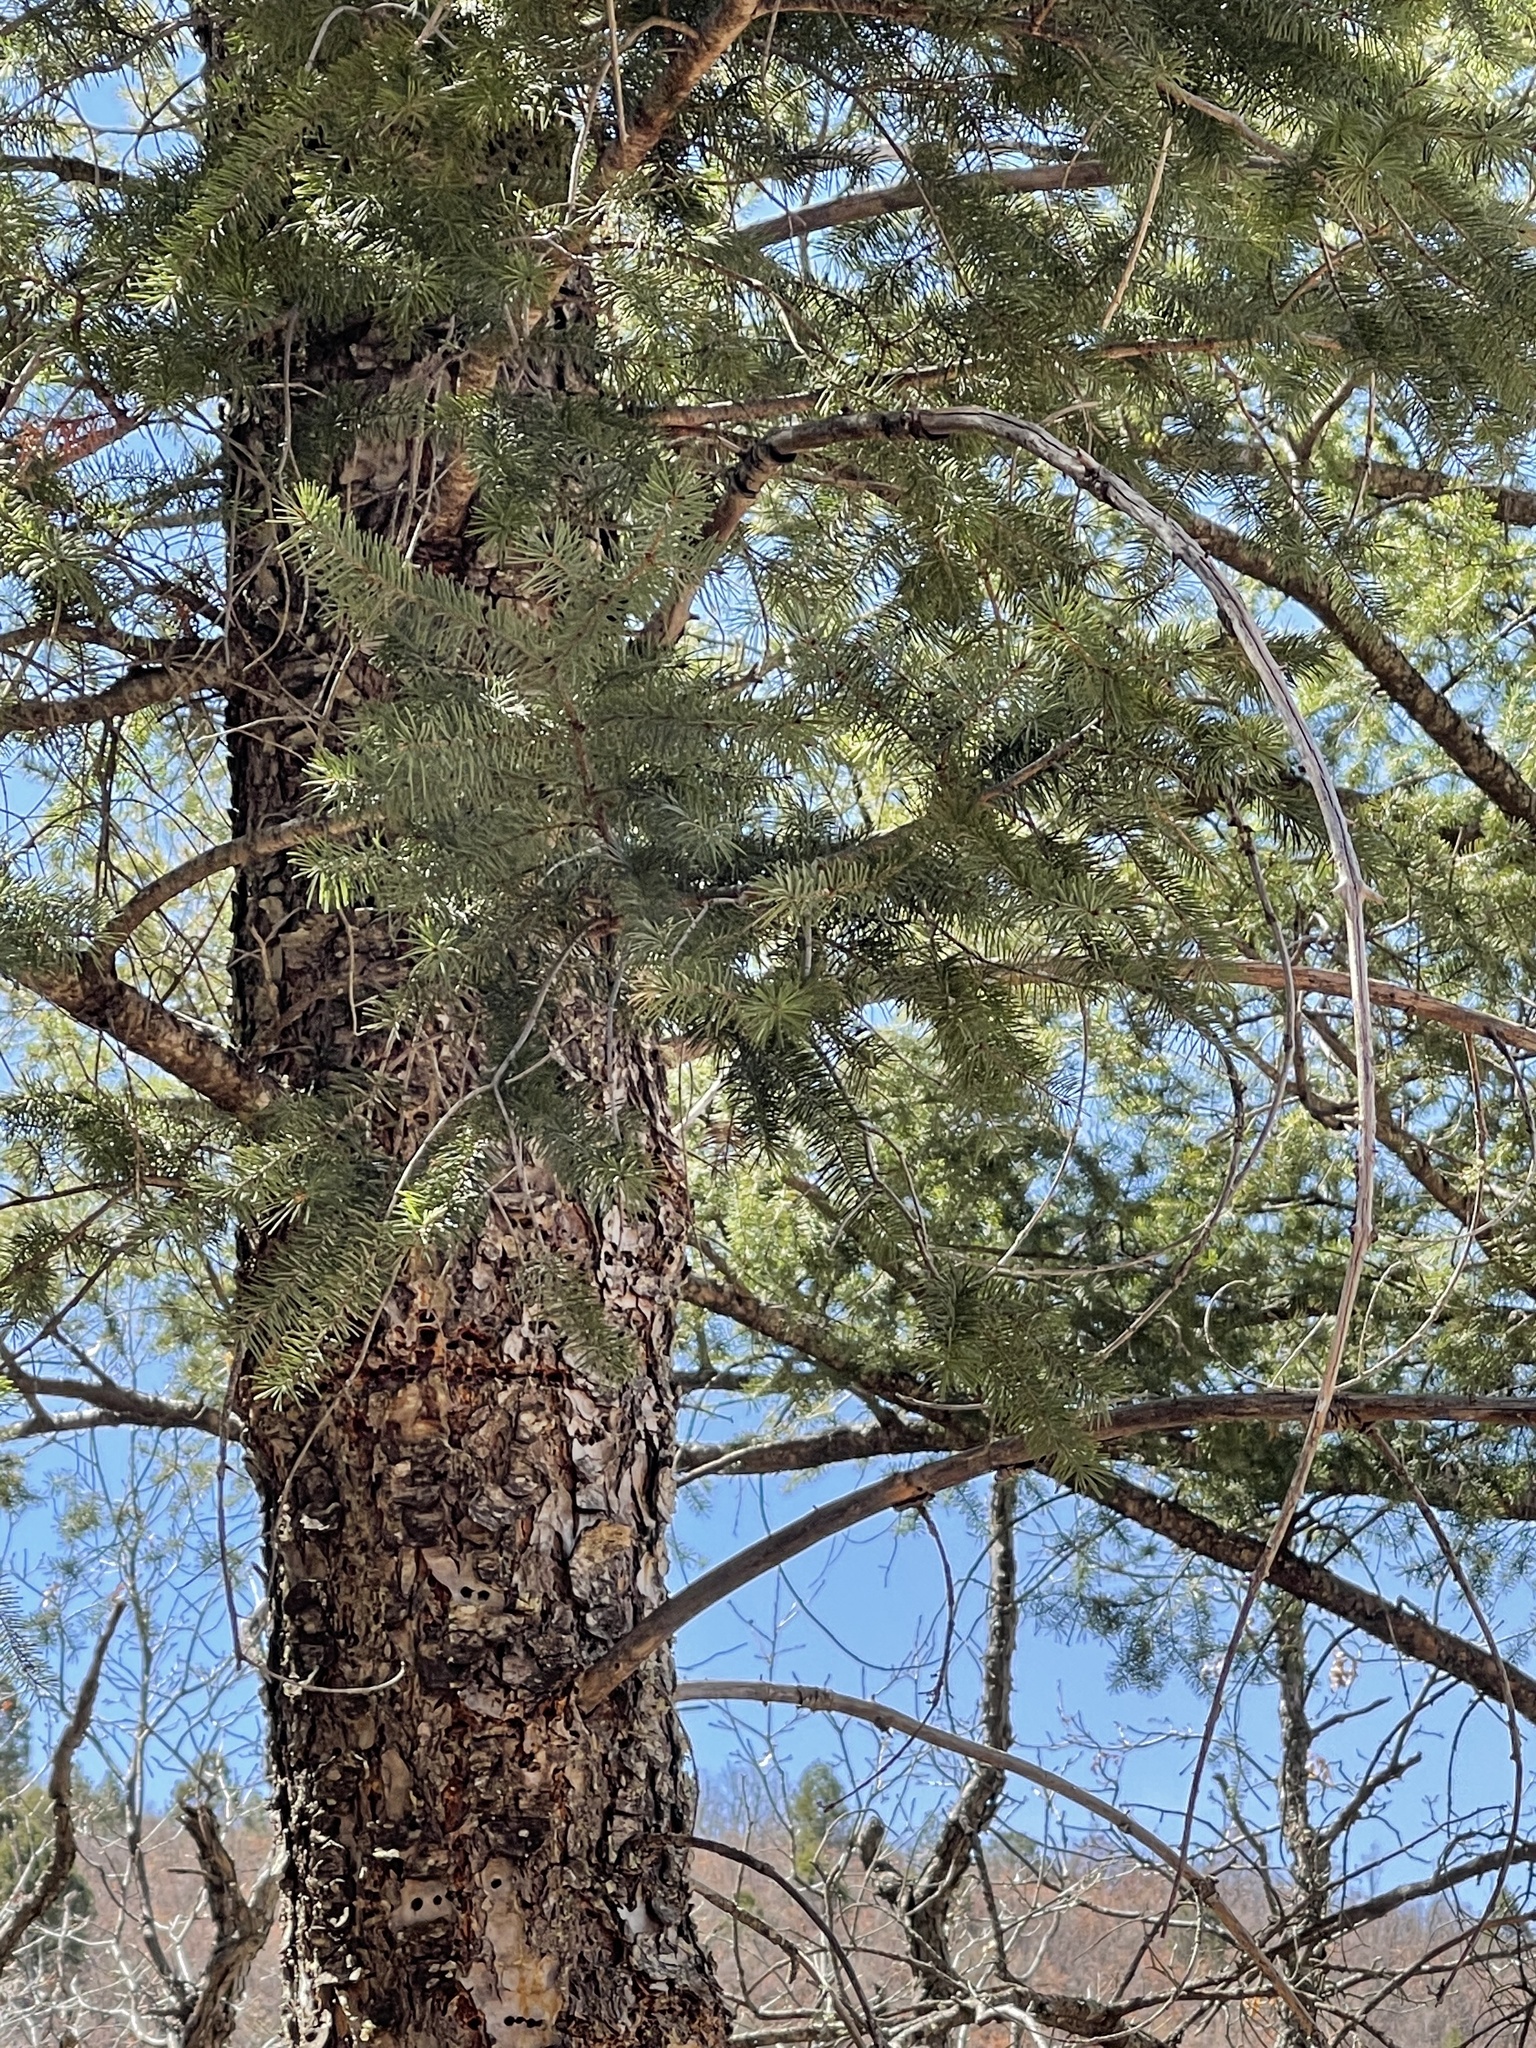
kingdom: Plantae
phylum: Tracheophyta
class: Pinopsida
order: Pinales
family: Pinaceae
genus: Pseudotsuga
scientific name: Pseudotsuga menziesii
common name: Douglas fir
